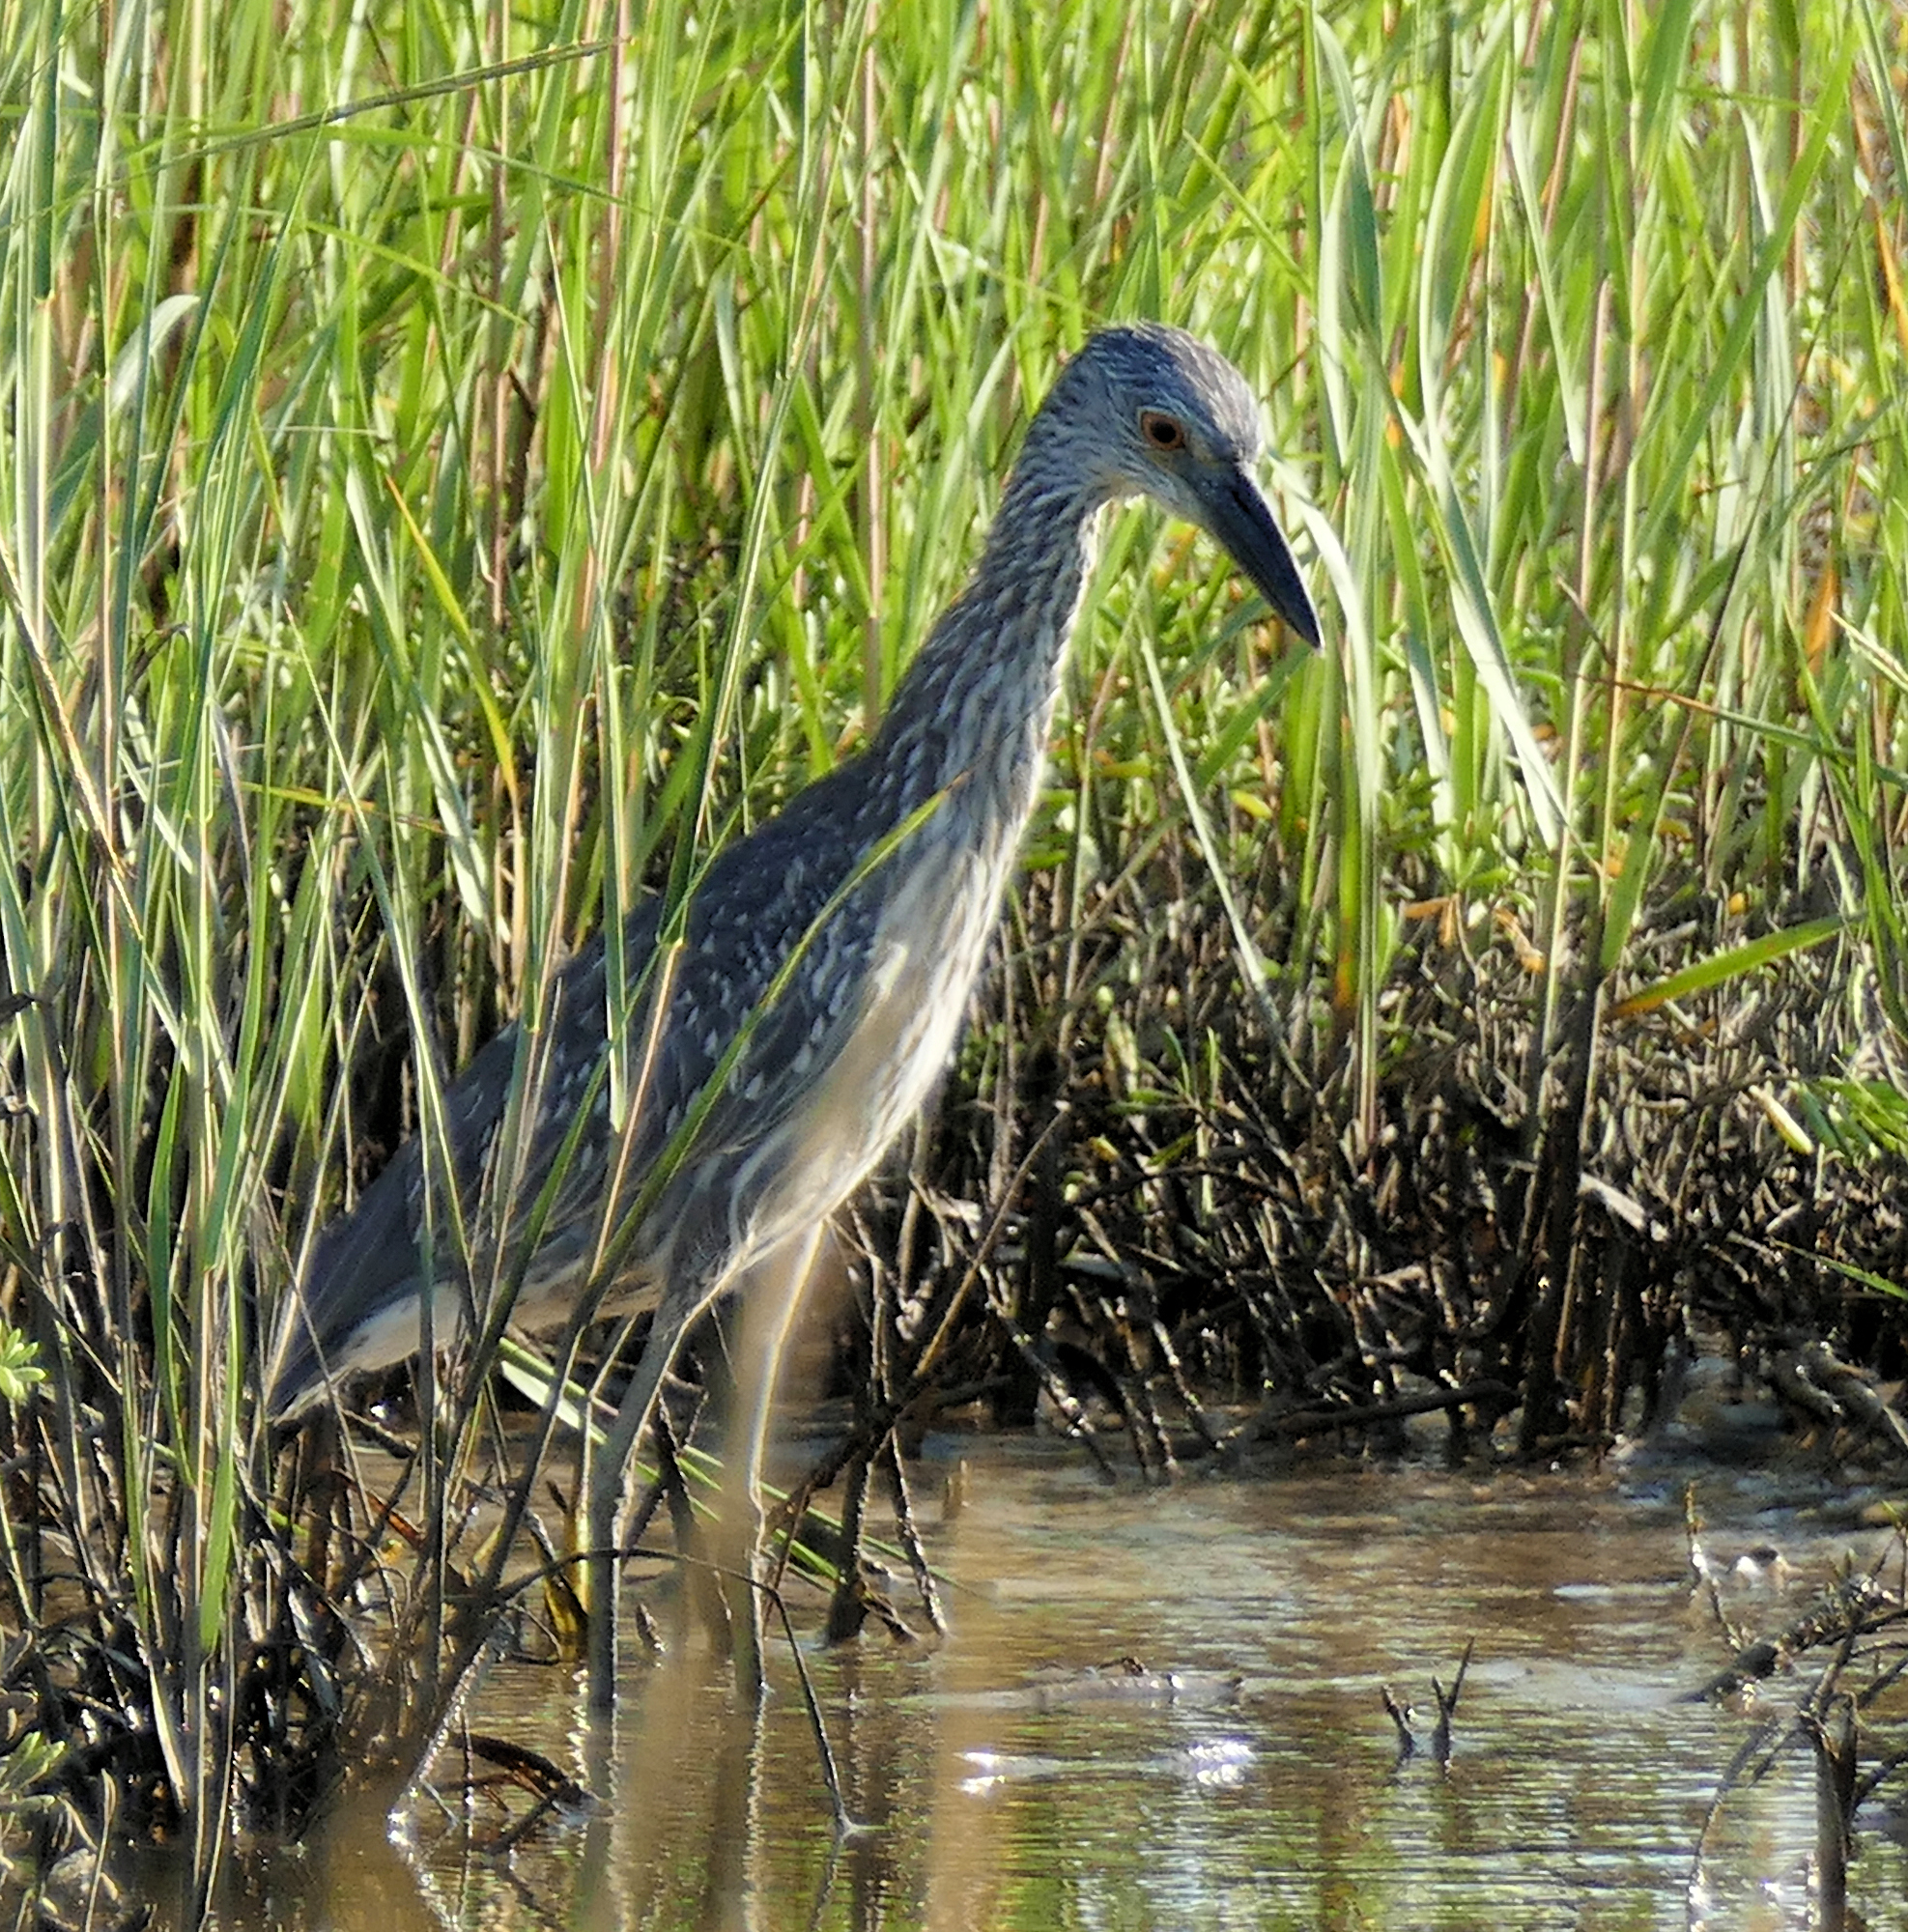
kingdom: Animalia
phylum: Chordata
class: Aves
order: Pelecaniformes
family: Ardeidae
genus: Nyctanassa
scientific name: Nyctanassa violacea
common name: Yellow-crowned night heron
